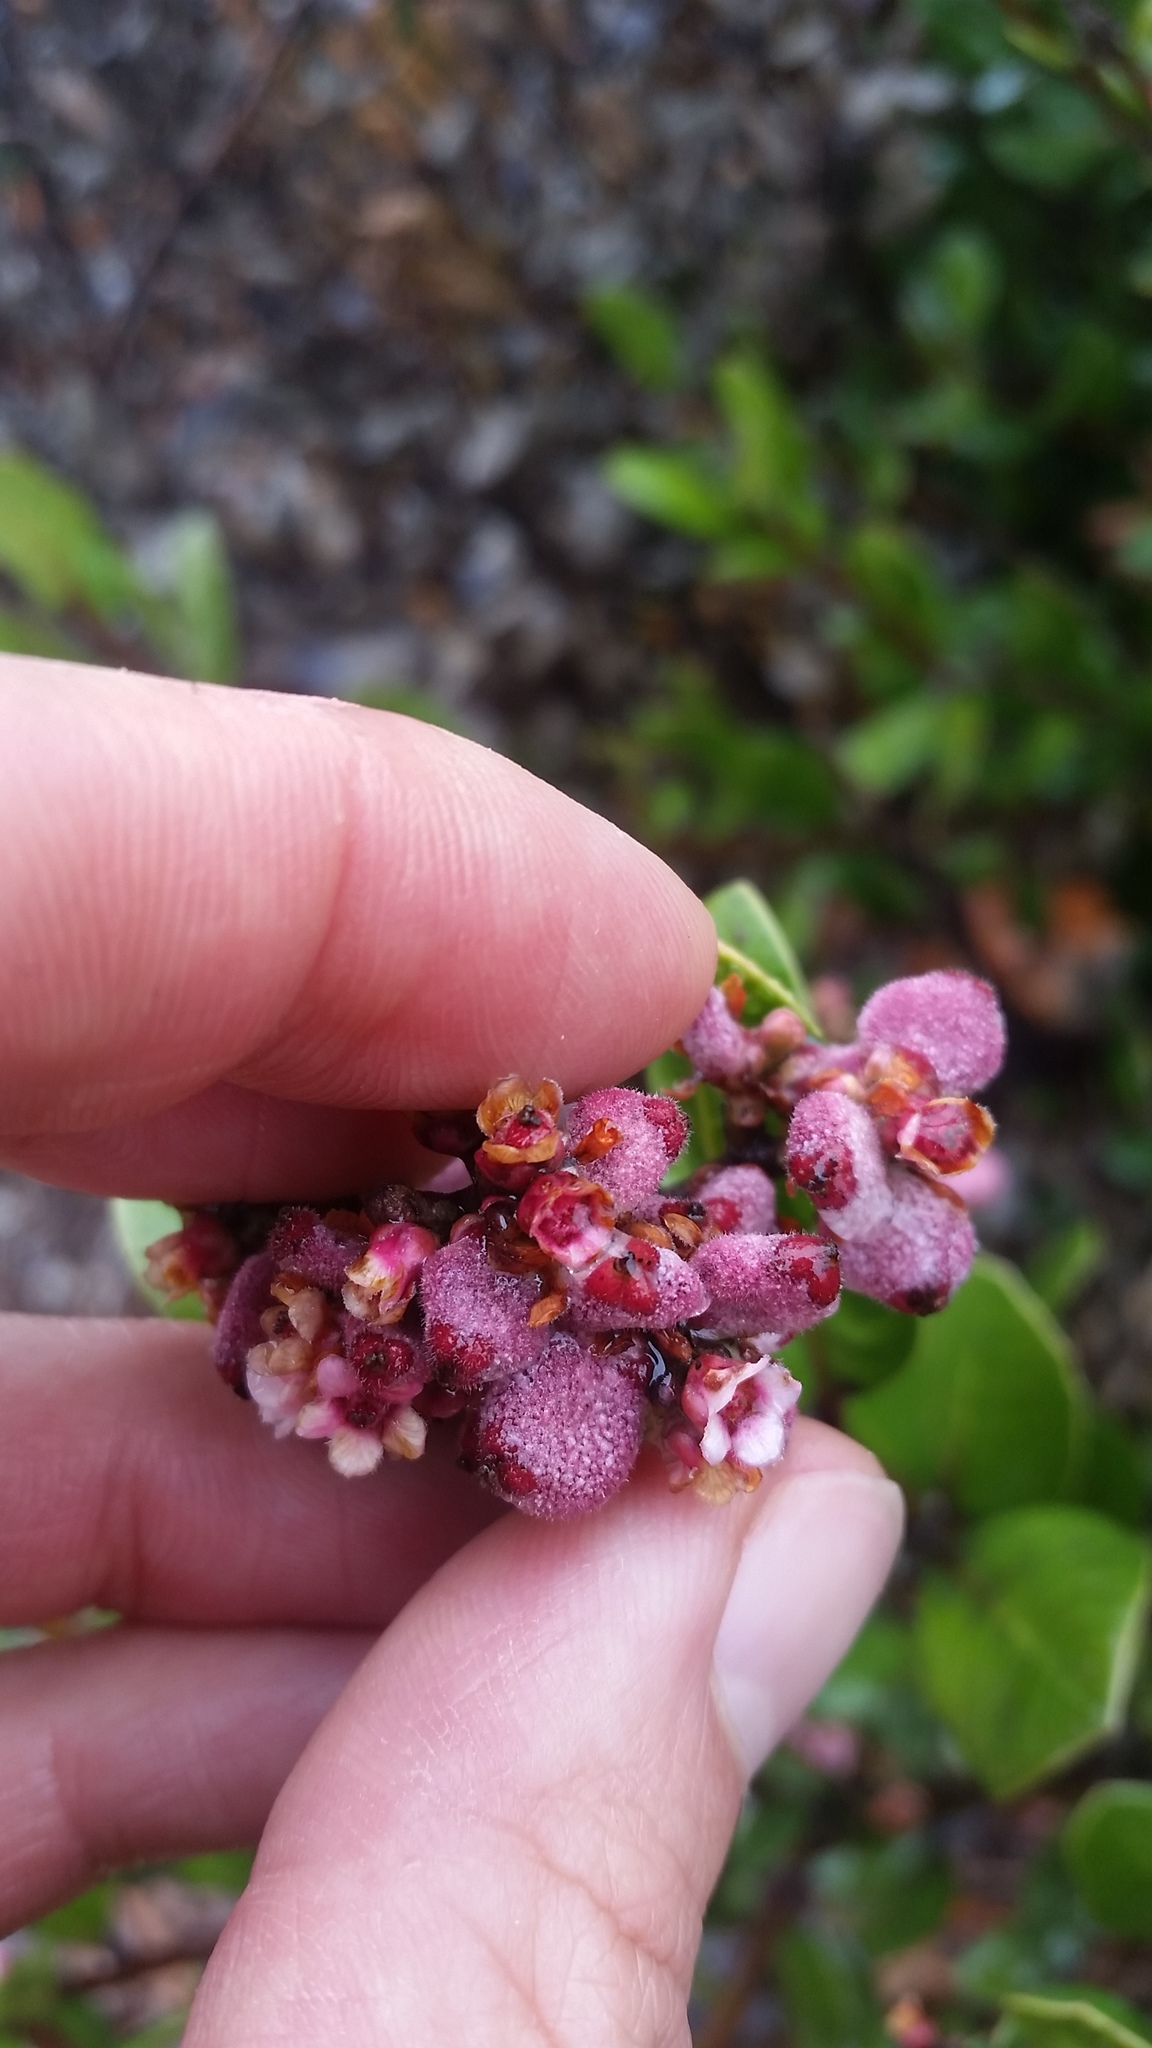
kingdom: Plantae
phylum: Tracheophyta
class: Magnoliopsida
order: Sapindales
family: Anacardiaceae
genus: Rhus
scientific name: Rhus integrifolia
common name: Lemonade sumac
